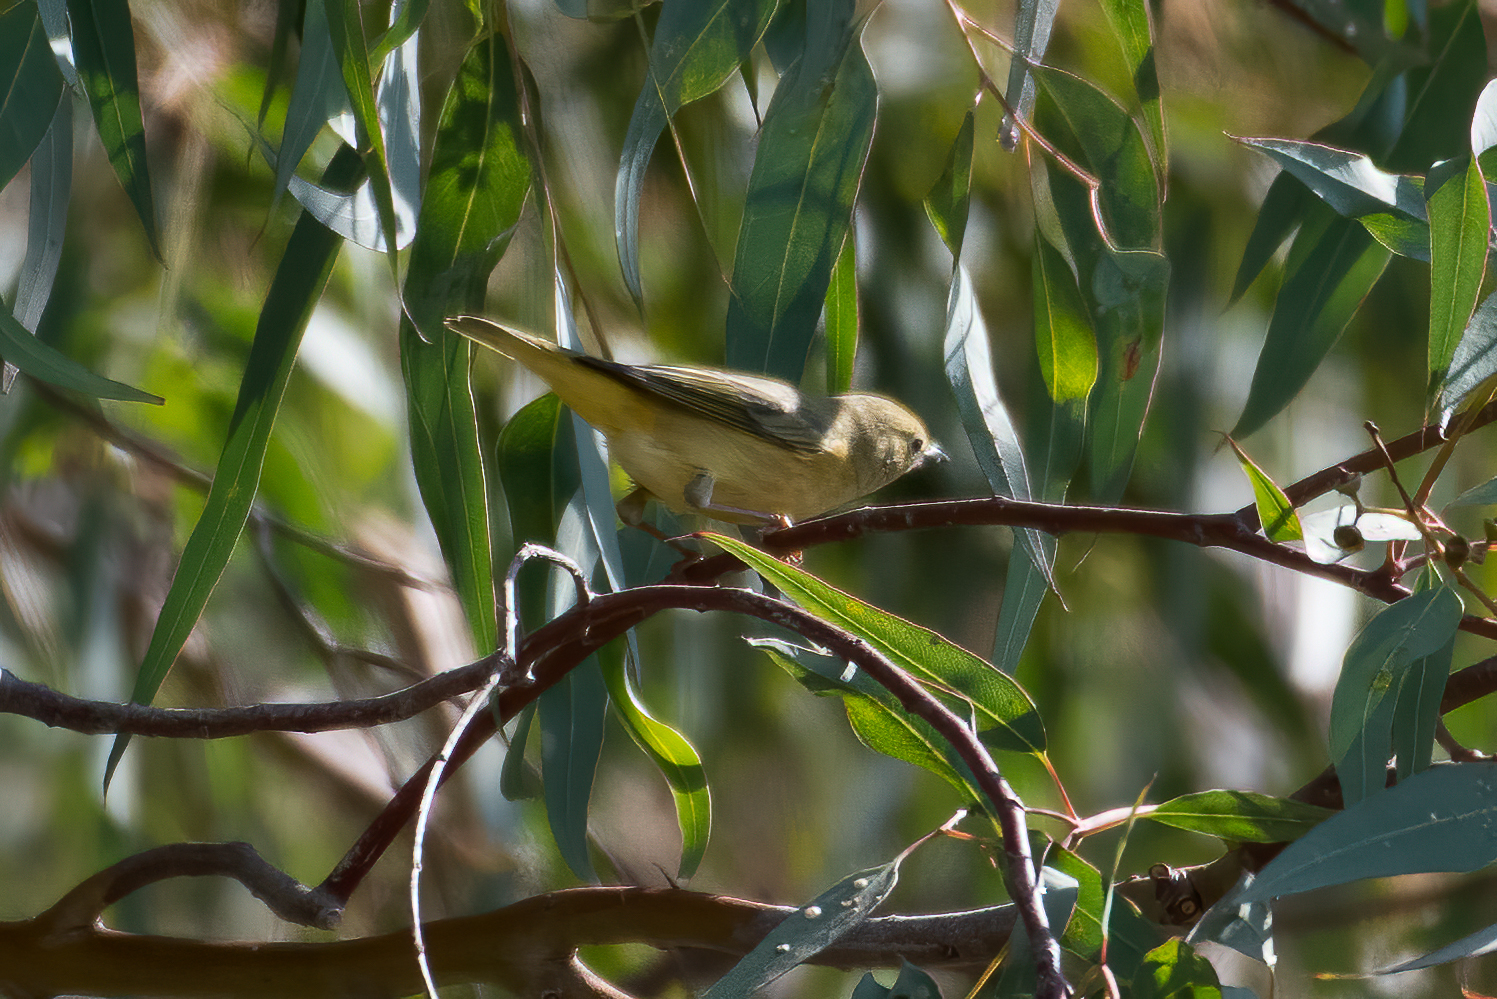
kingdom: Animalia
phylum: Chordata
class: Aves
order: Passeriformes
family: Parulidae
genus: Setophaga
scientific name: Setophaga petechia
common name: Yellow warbler
